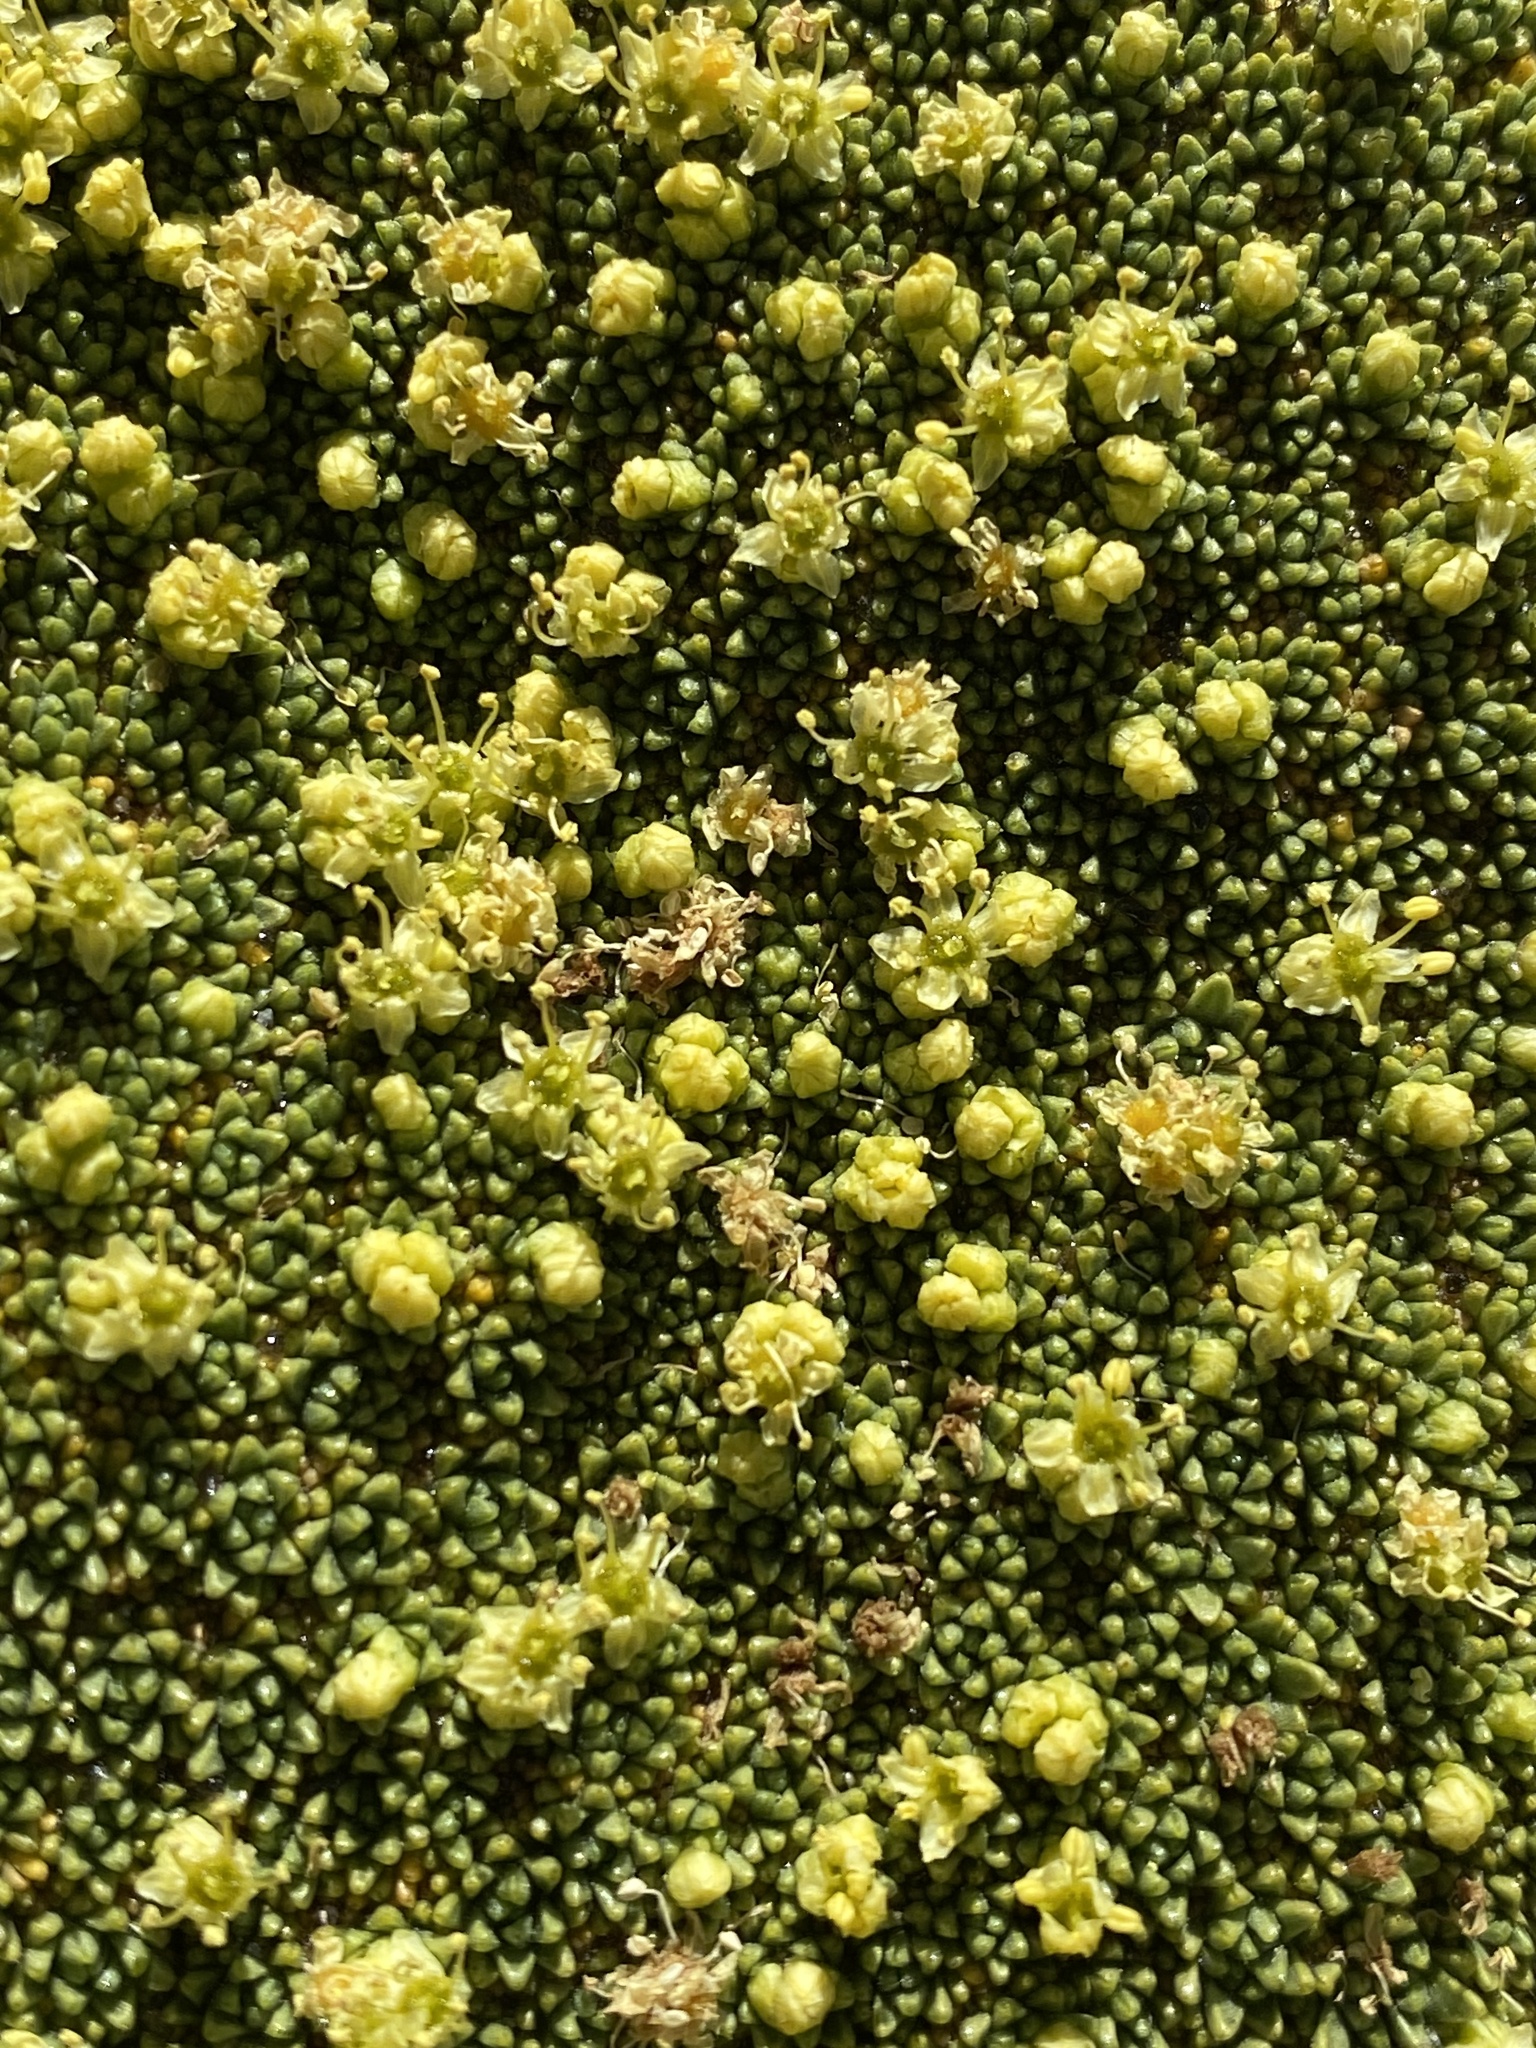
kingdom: Plantae
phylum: Tracheophyta
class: Magnoliopsida
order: Apiales
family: Apiaceae
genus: Azorella
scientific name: Azorella compacta
